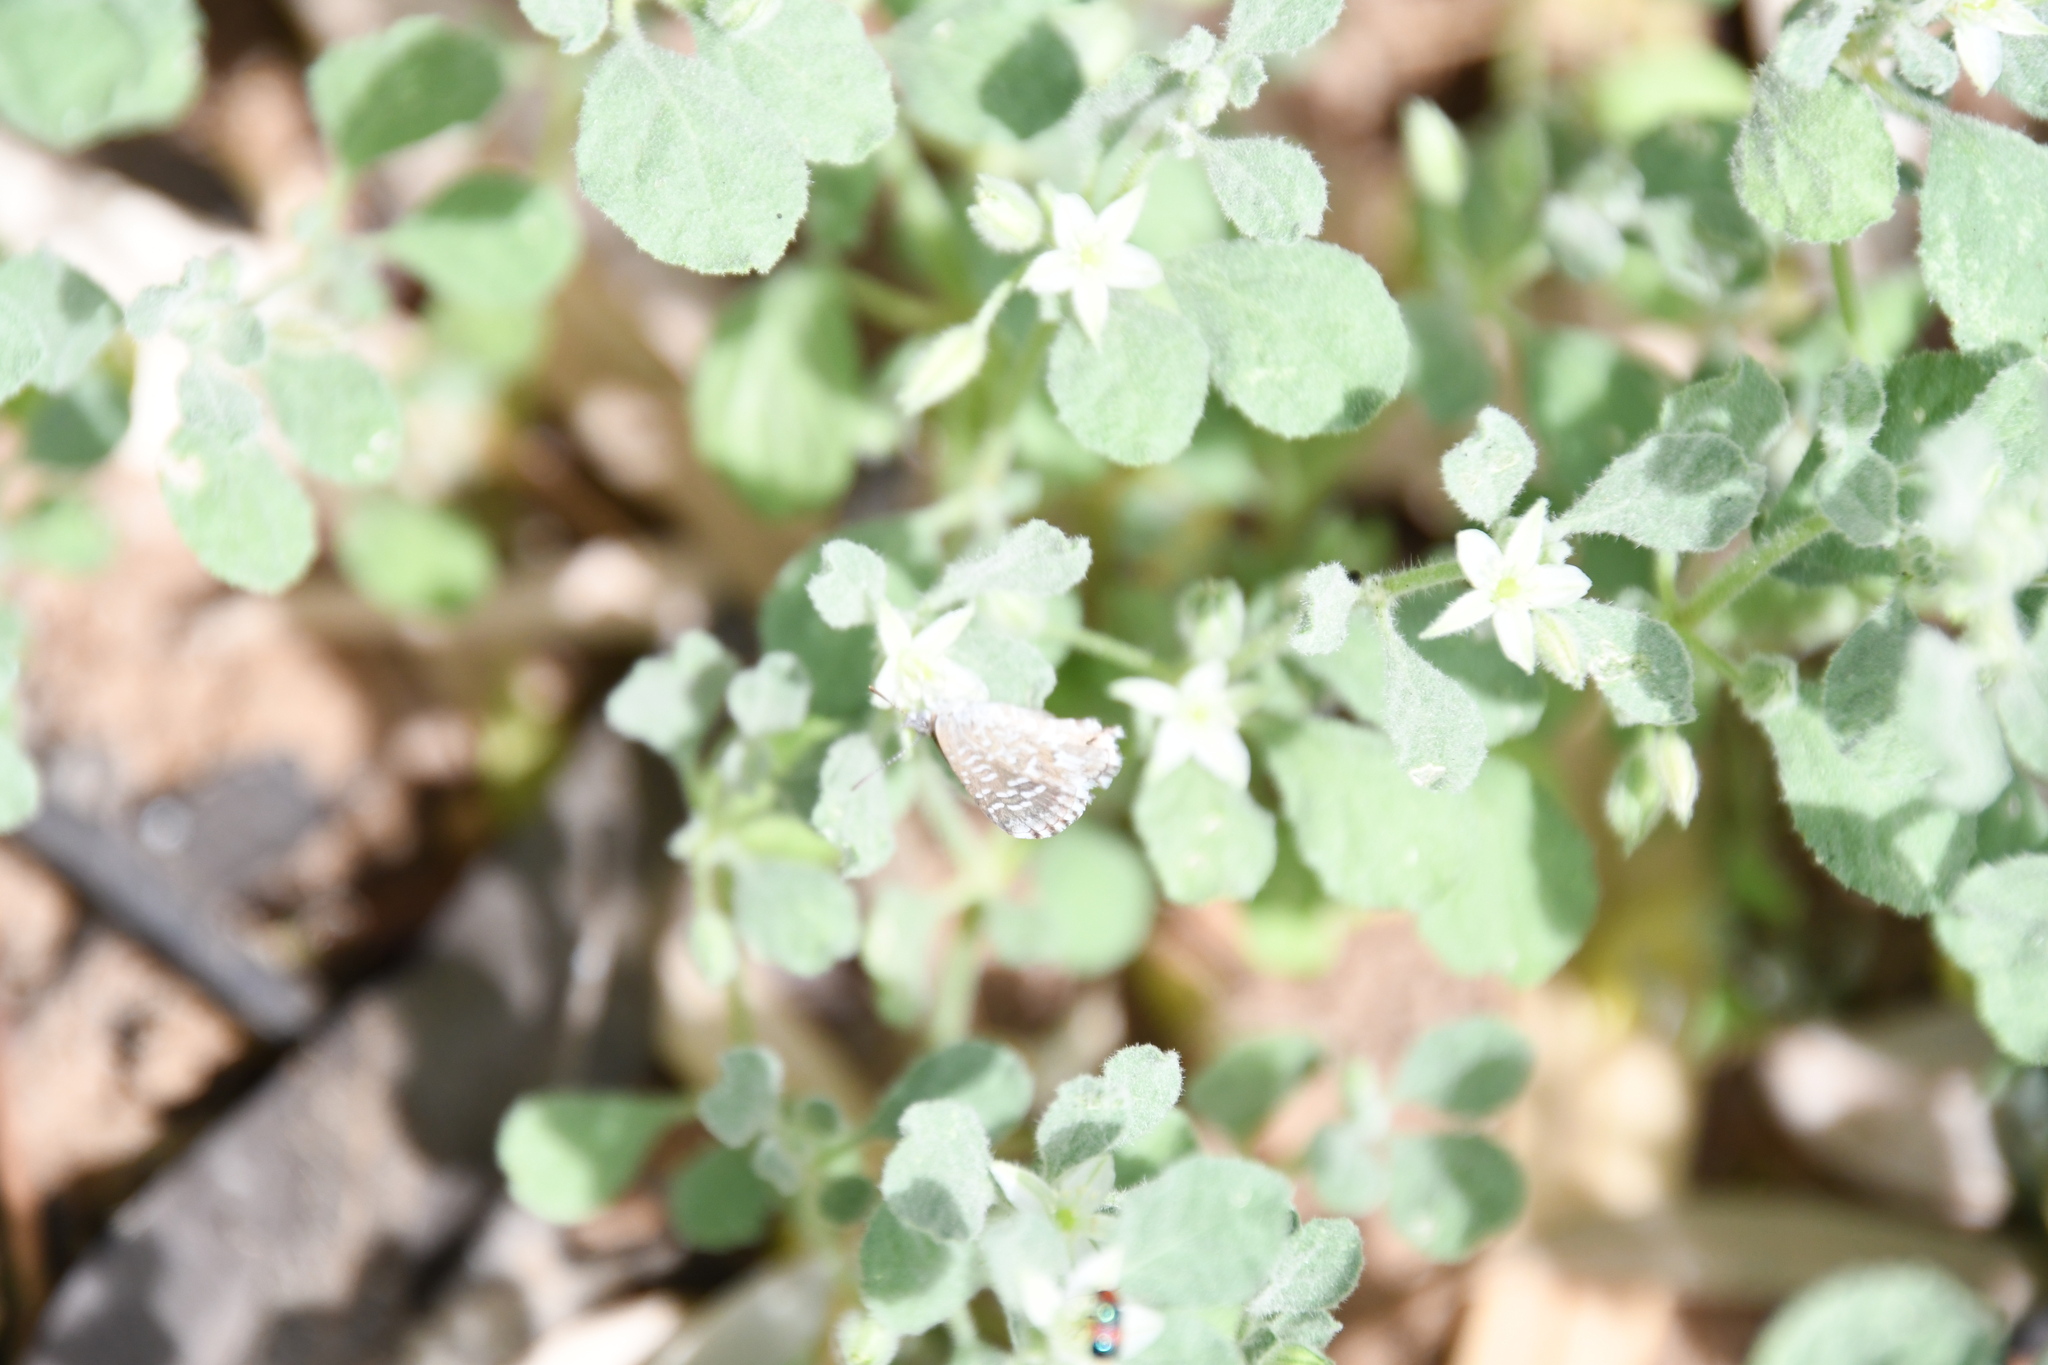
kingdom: Animalia
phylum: Arthropoda
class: Insecta
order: Lepidoptera
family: Lycaenidae
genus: Theclinesthes
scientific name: Theclinesthes serpentata
